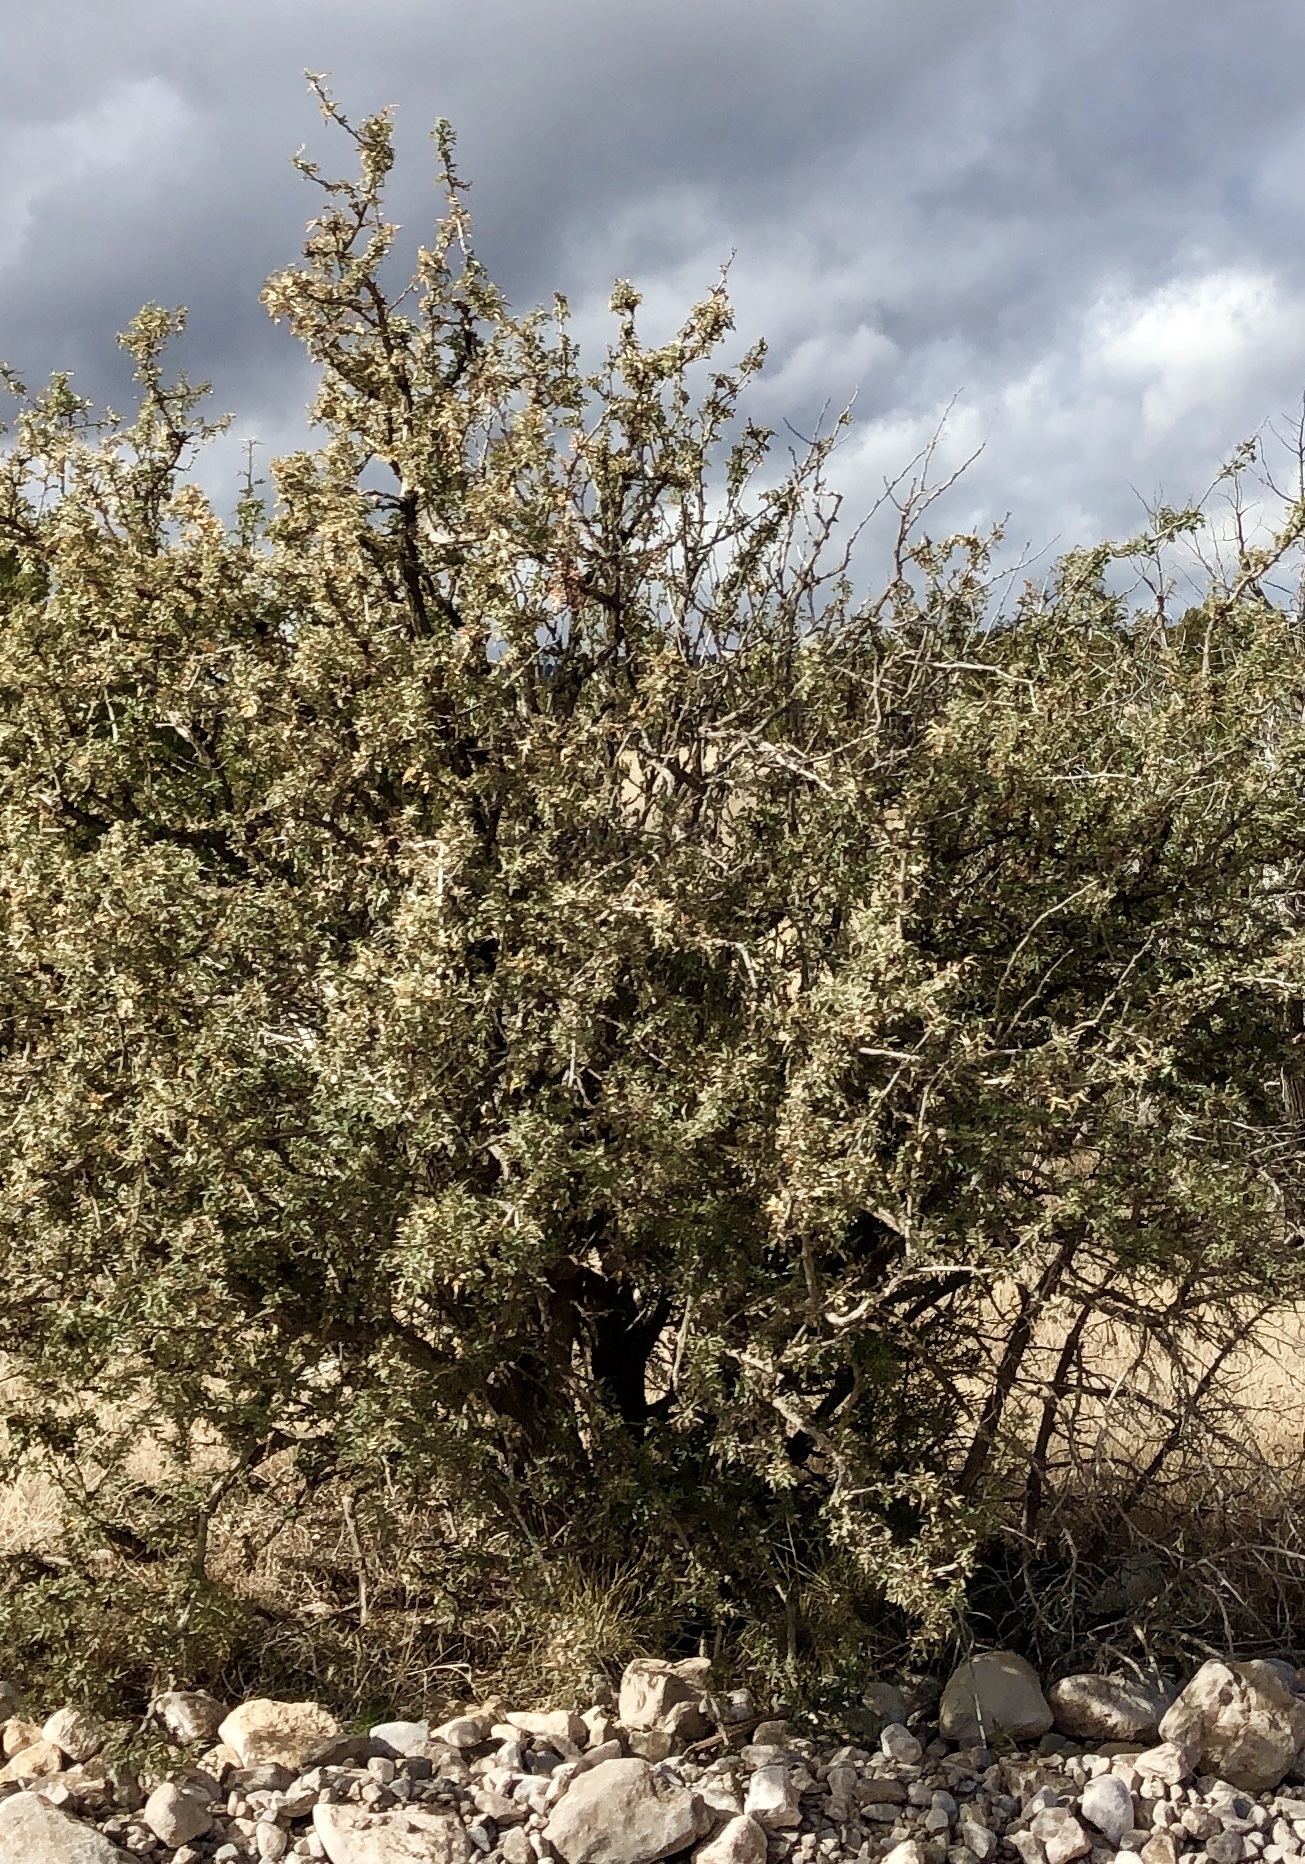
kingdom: Plantae
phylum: Tracheophyta
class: Magnoliopsida
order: Ranunculales
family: Berberidaceae
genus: Alloberberis
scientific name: Alloberberis haematocarpa
